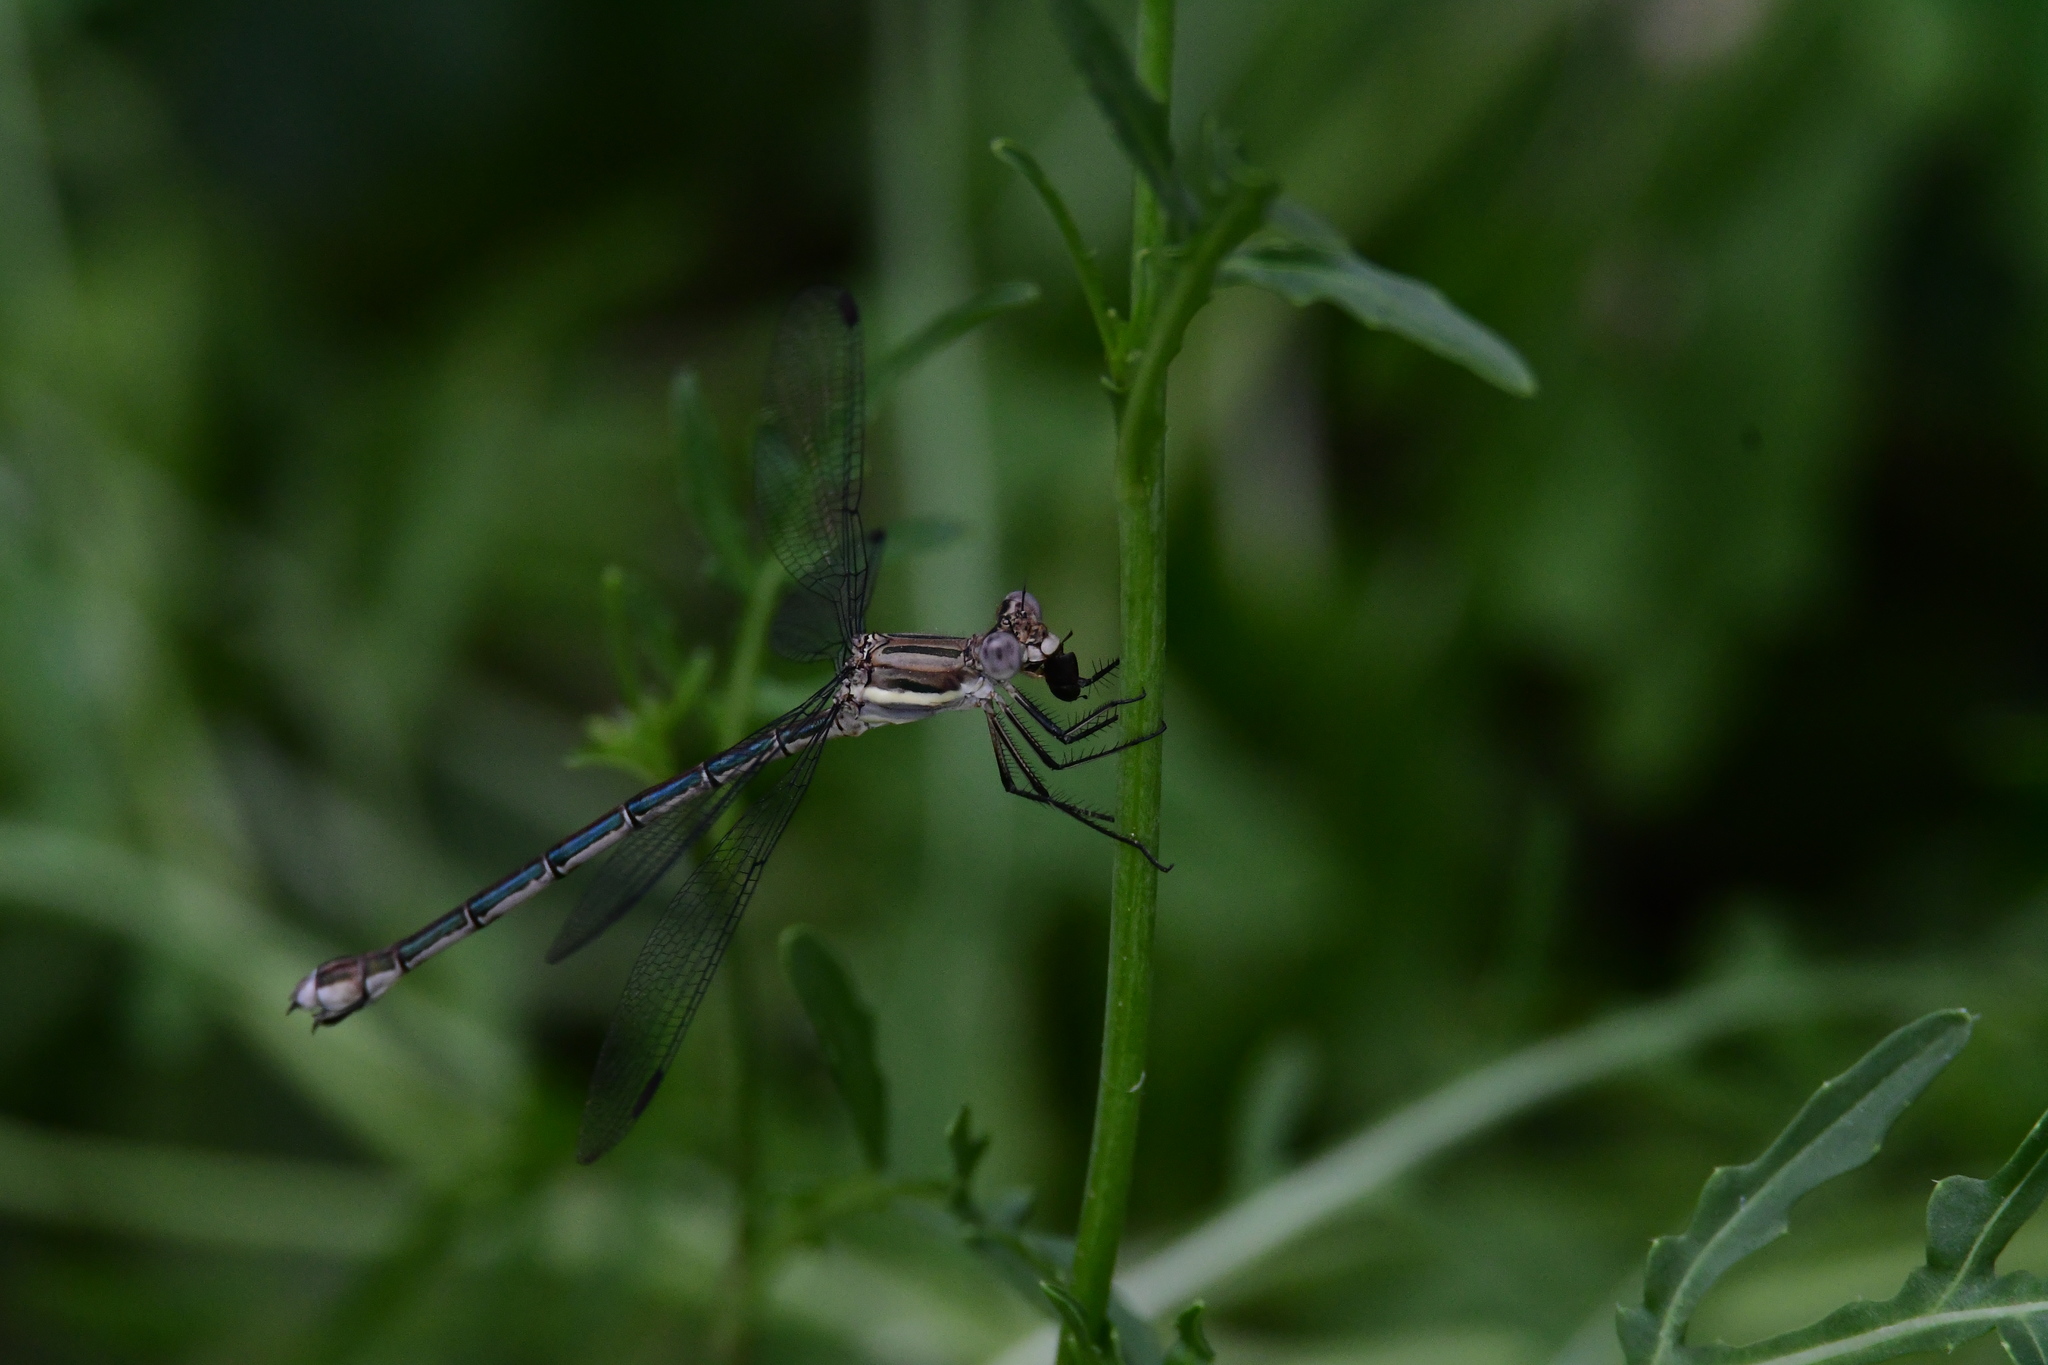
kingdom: Animalia
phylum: Arthropoda
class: Insecta
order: Odonata
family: Lestidae
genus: Archilestes
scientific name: Archilestes grandis
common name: Great spreadwing
